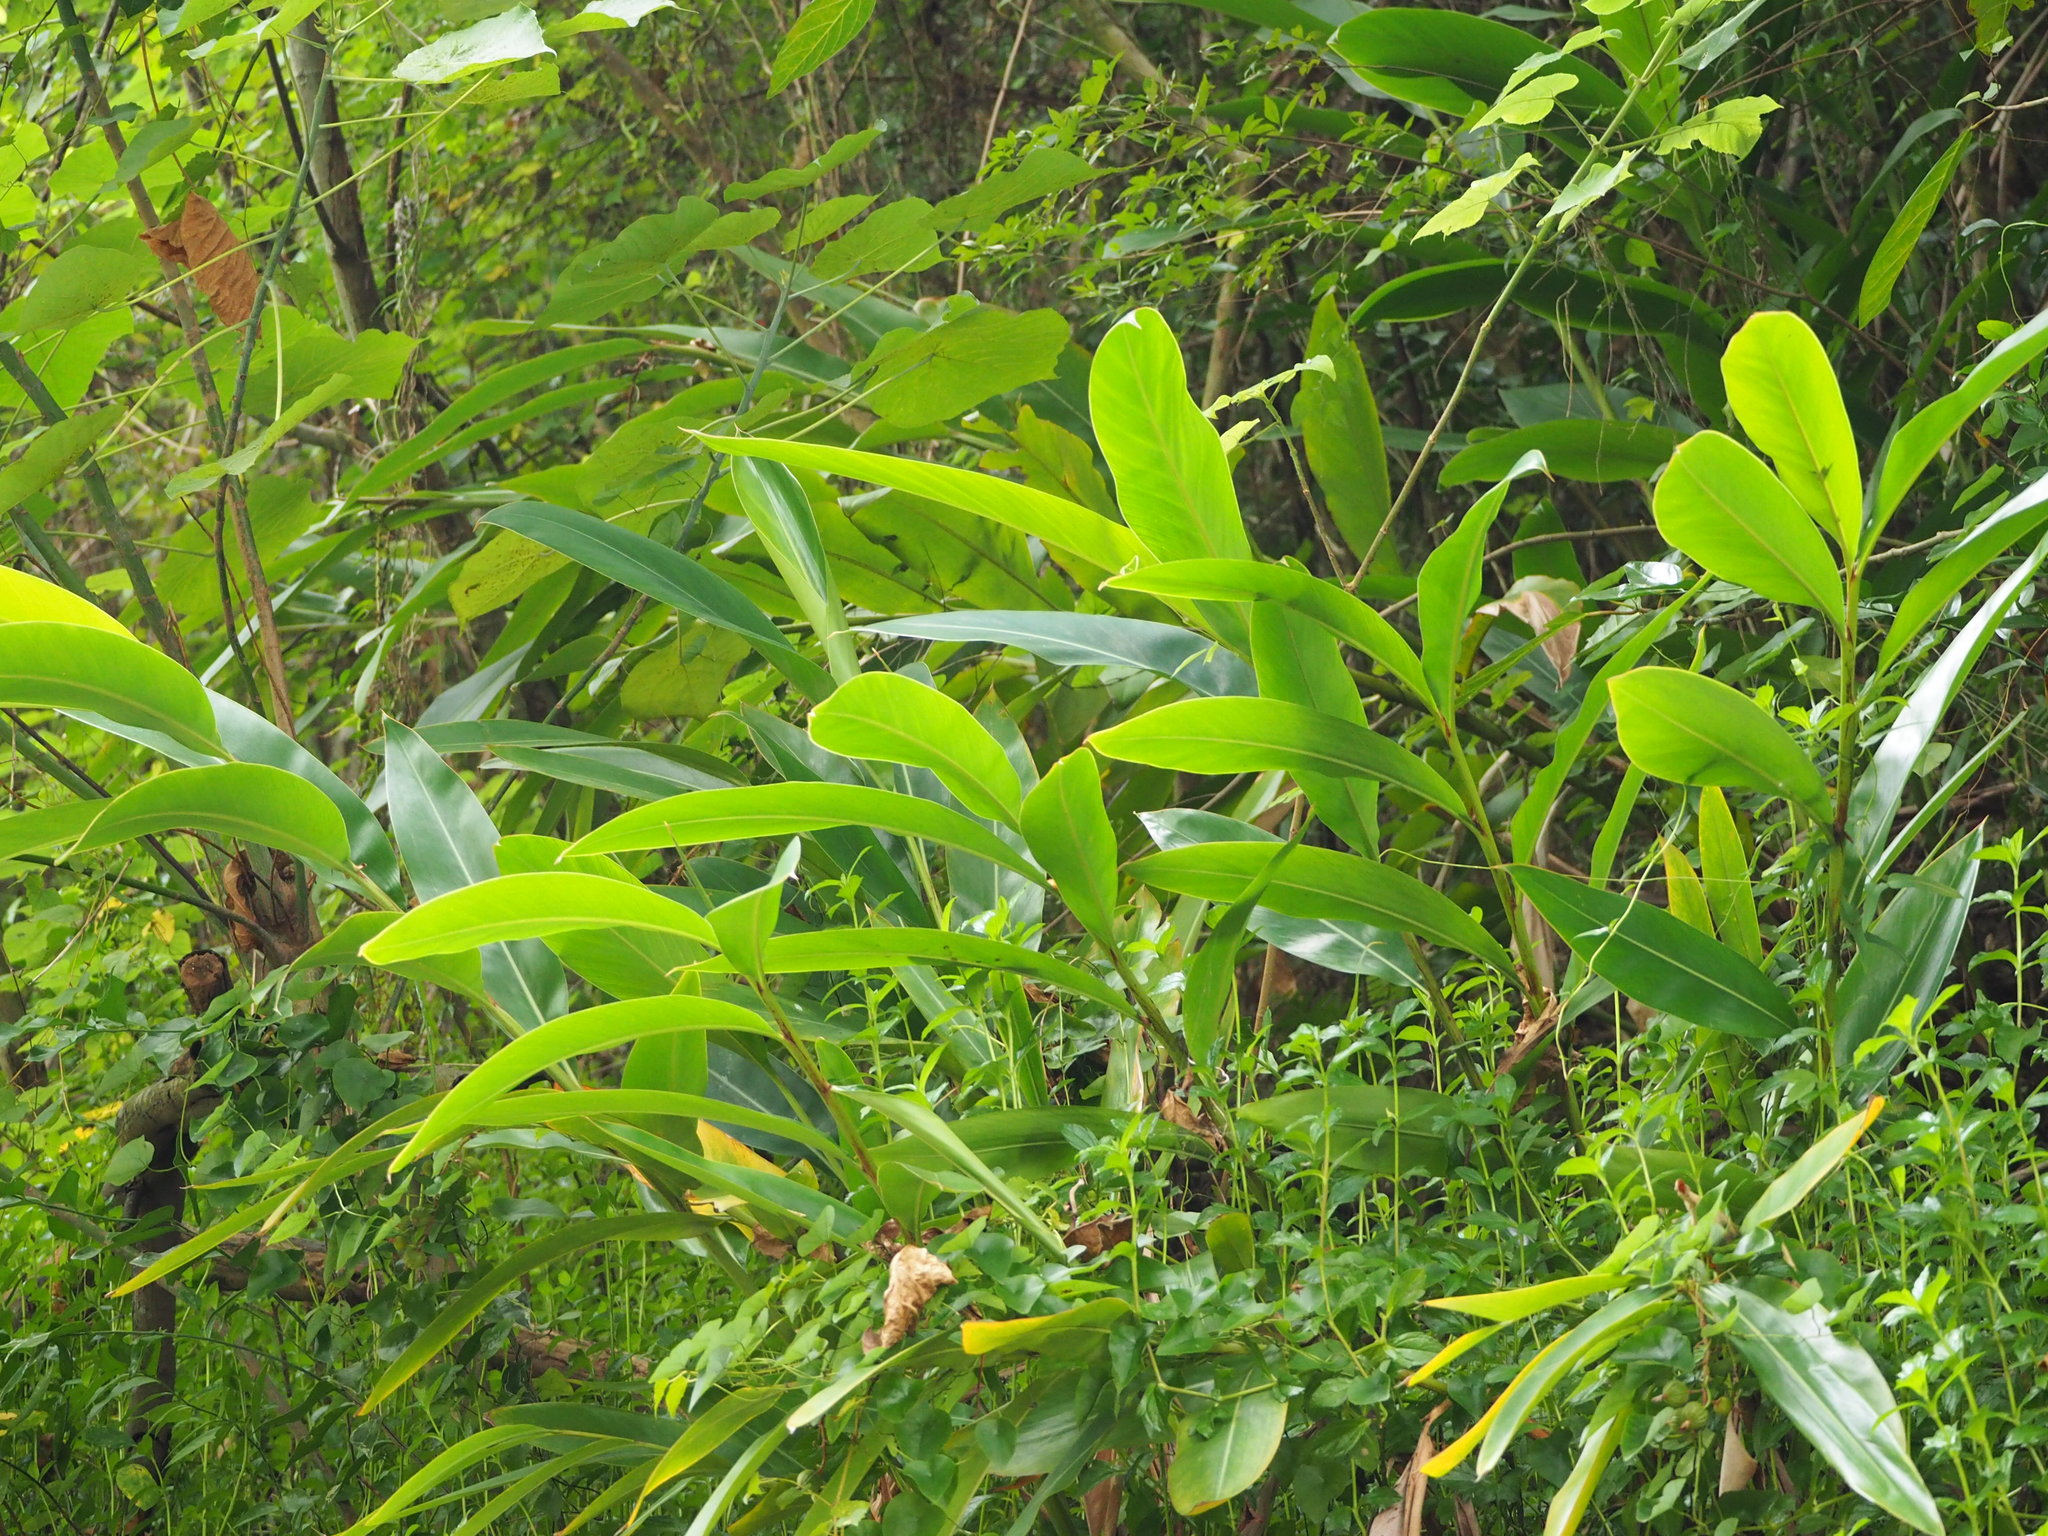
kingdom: Plantae
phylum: Tracheophyta
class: Liliopsida
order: Zingiberales
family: Zingiberaceae
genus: Alpinia
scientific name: Alpinia zerumbet
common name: Shellplant
